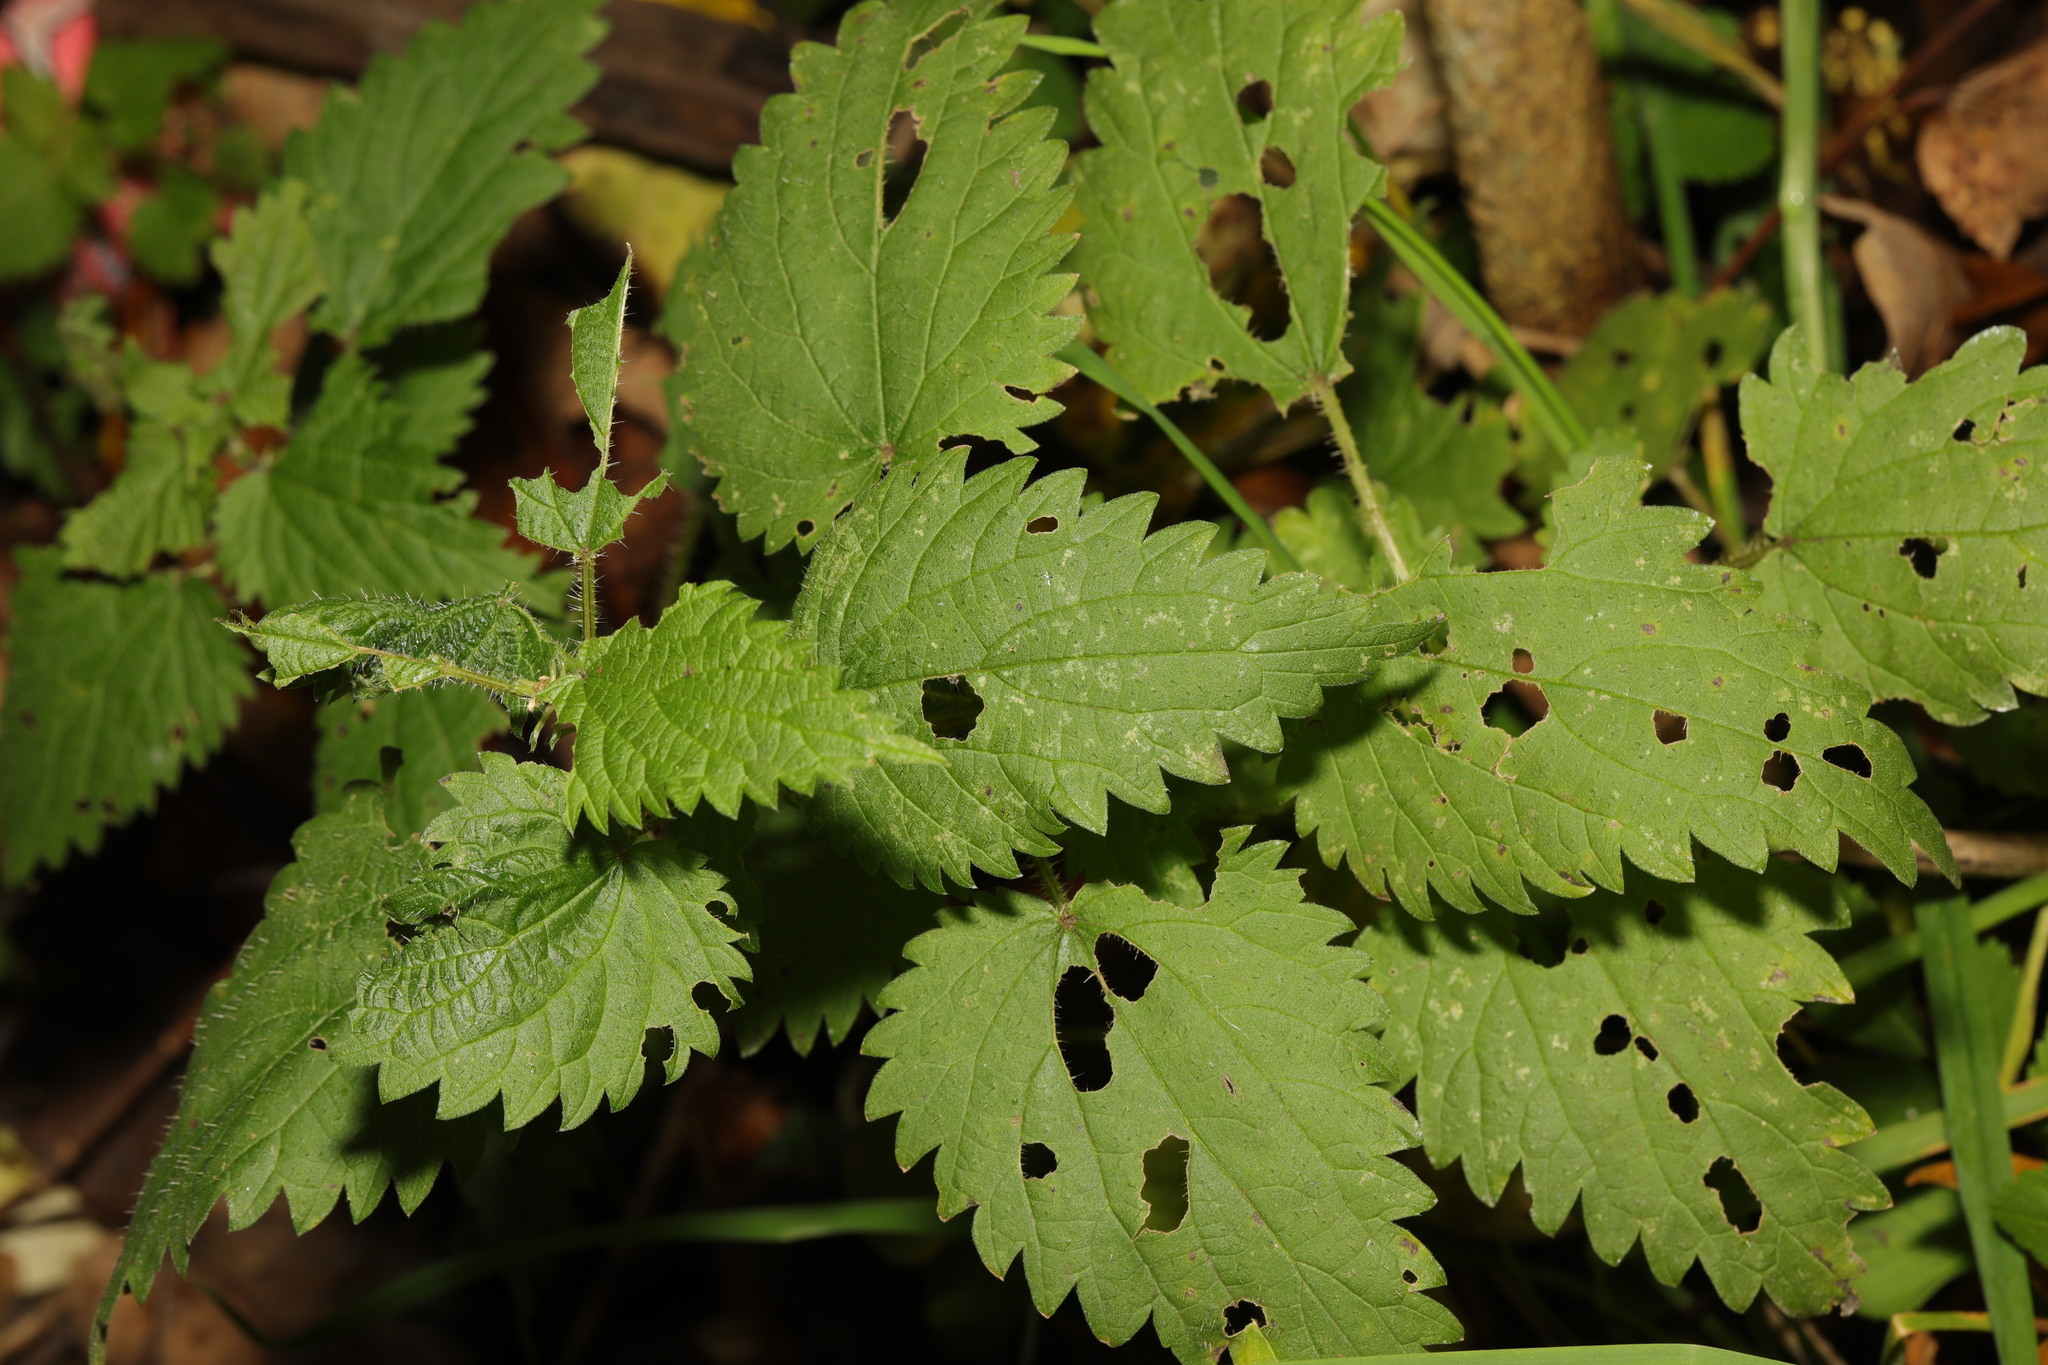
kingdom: Plantae
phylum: Tracheophyta
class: Magnoliopsida
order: Rosales
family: Urticaceae
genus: Urtica
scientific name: Urtica dioica
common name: Common nettle
